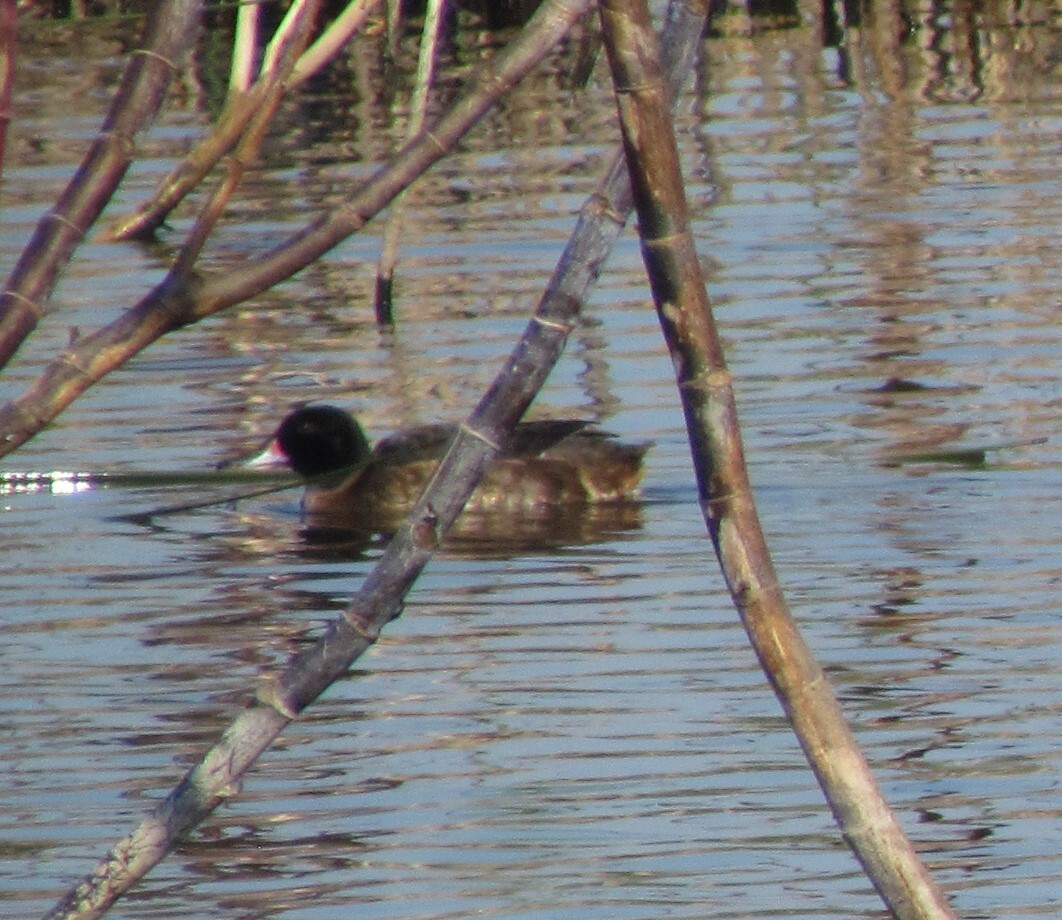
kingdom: Animalia
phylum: Chordata
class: Aves
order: Anseriformes
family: Anatidae
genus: Heteronetta
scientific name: Heteronetta atricapilla
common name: Black-headed duck
